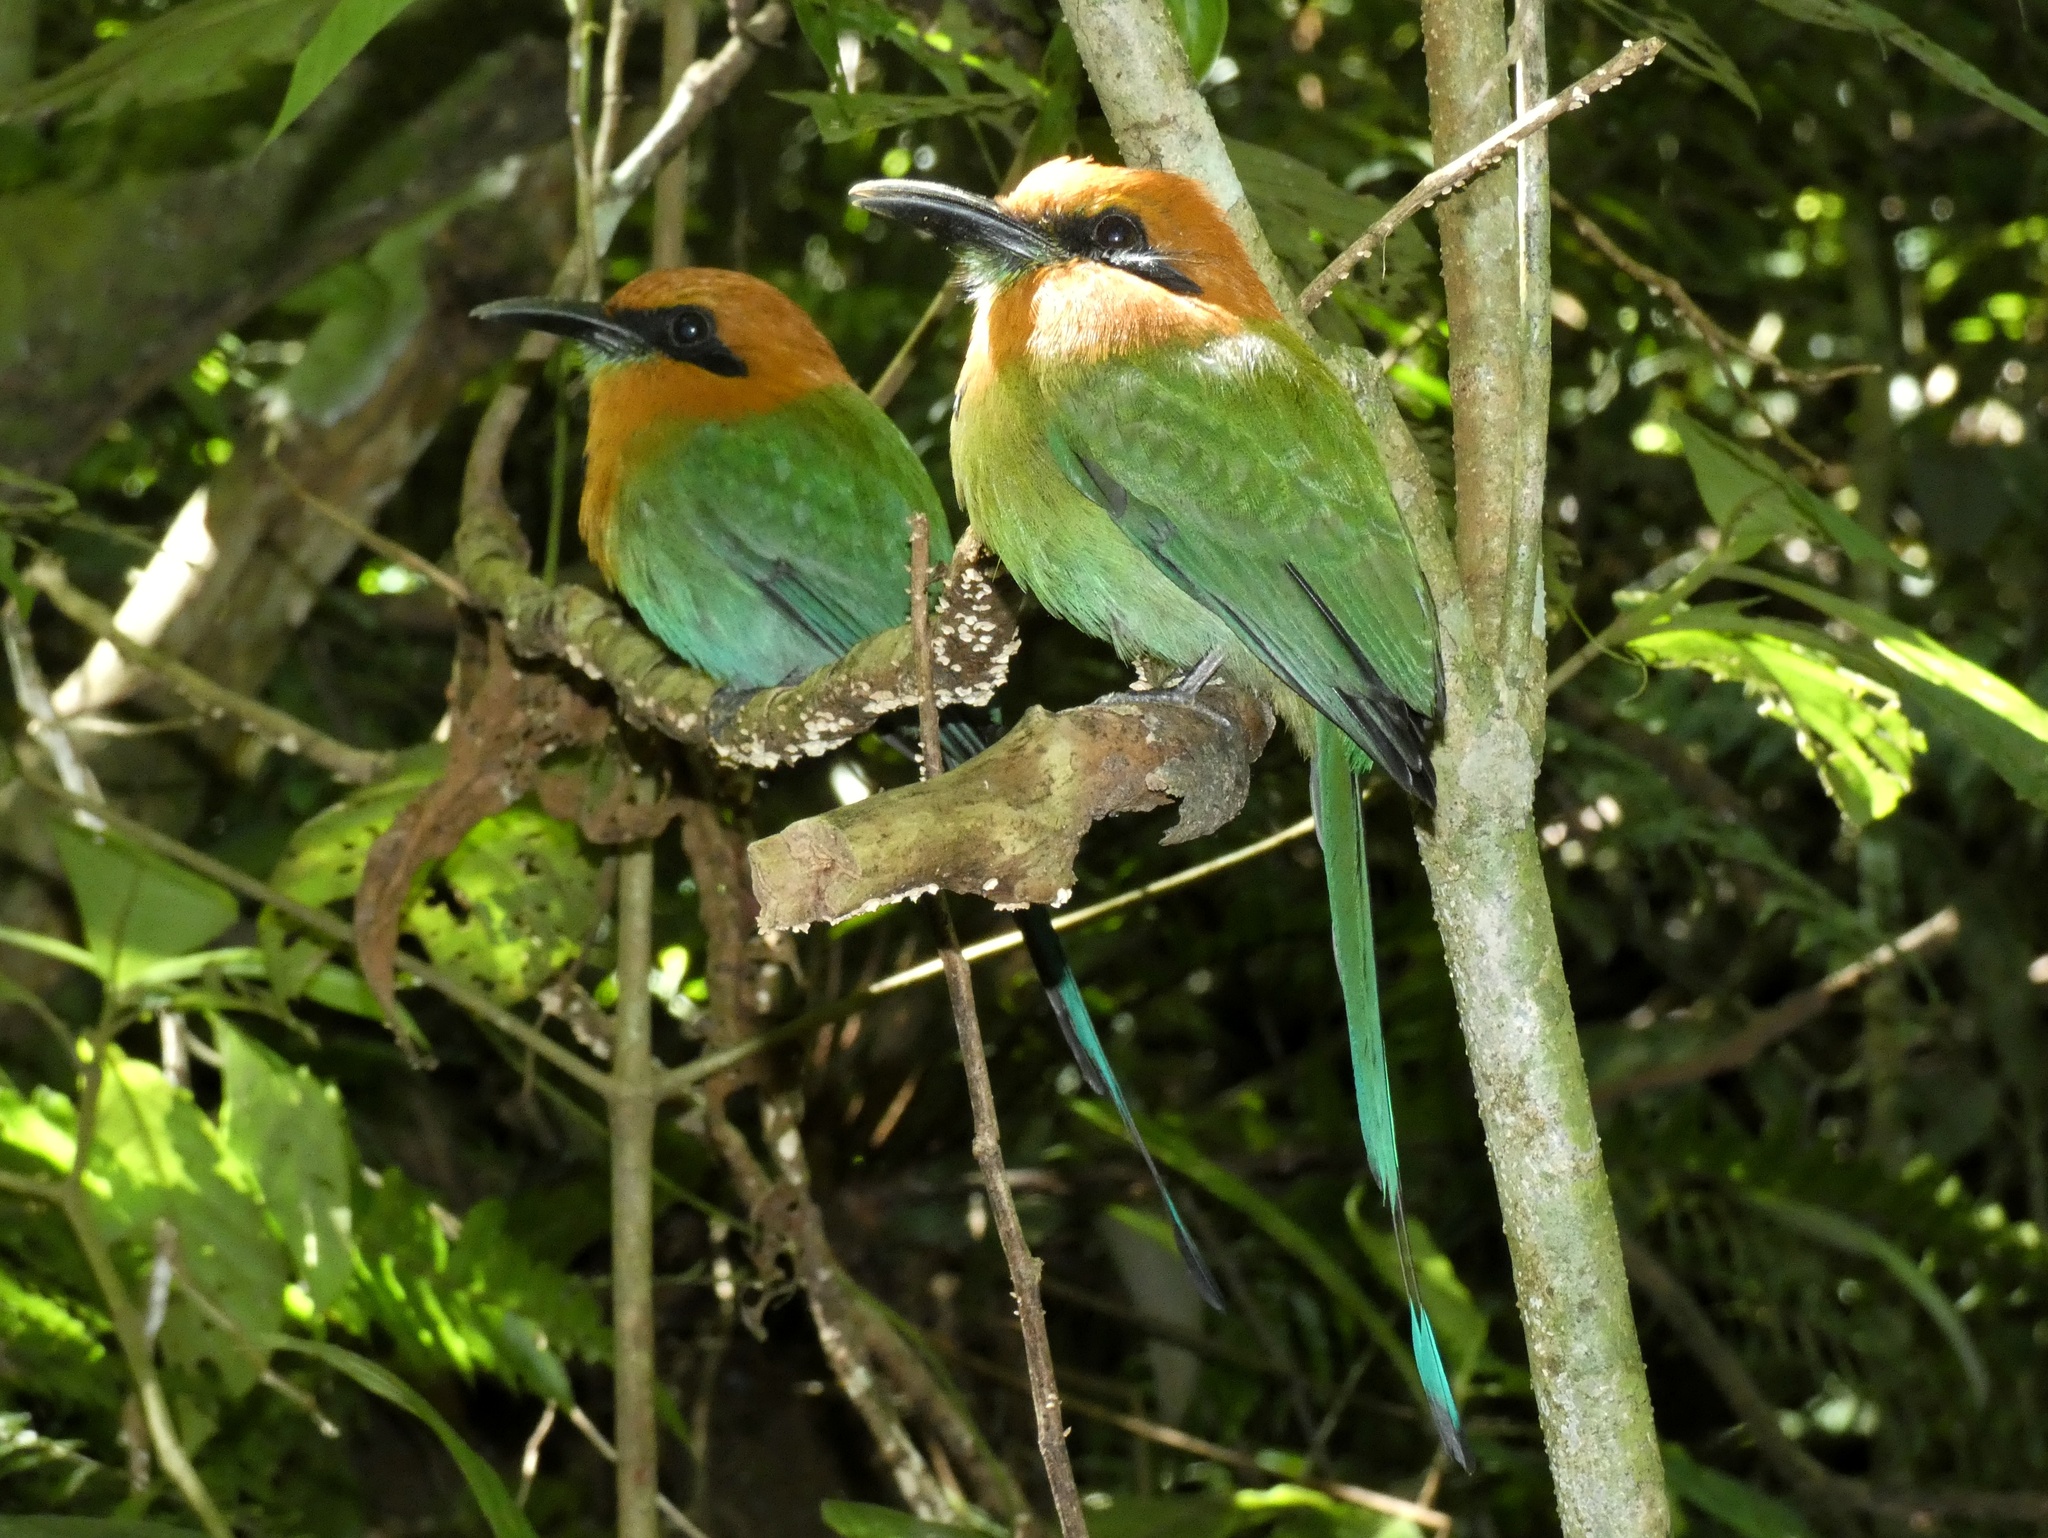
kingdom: Animalia
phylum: Chordata
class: Aves
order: Coraciiformes
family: Momotidae
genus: Electron
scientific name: Electron platyrhynchum
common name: Broad-billed motmot
